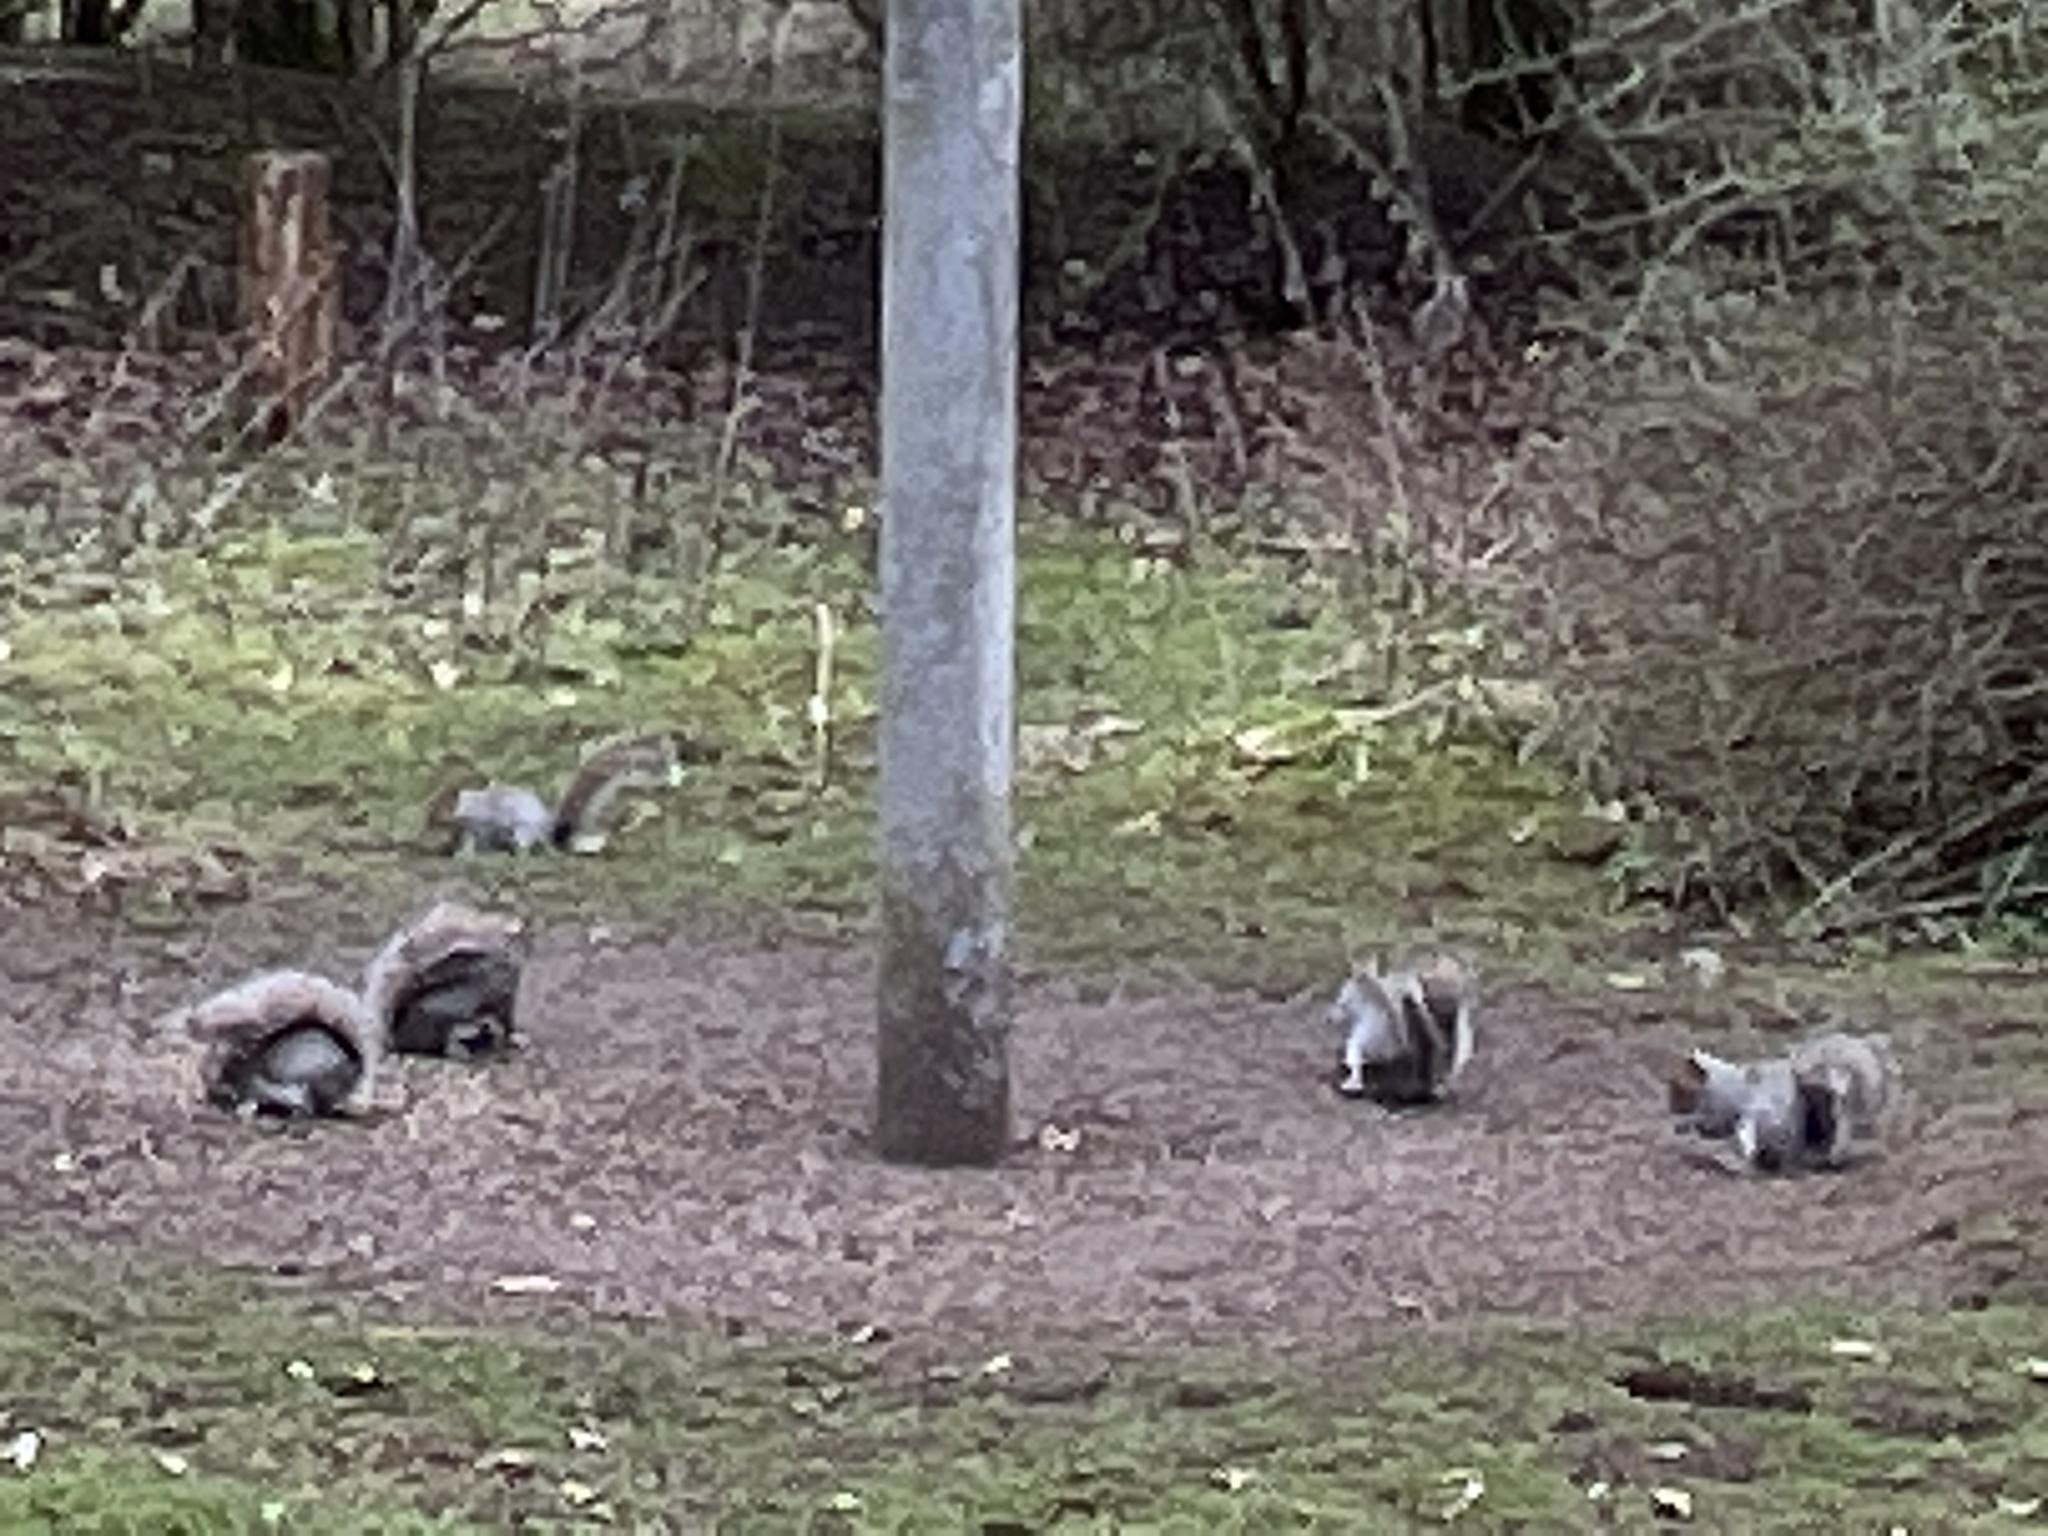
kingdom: Animalia
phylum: Chordata
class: Mammalia
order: Rodentia
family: Sciuridae
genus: Sciurus
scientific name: Sciurus carolinensis
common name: Eastern gray squirrel
